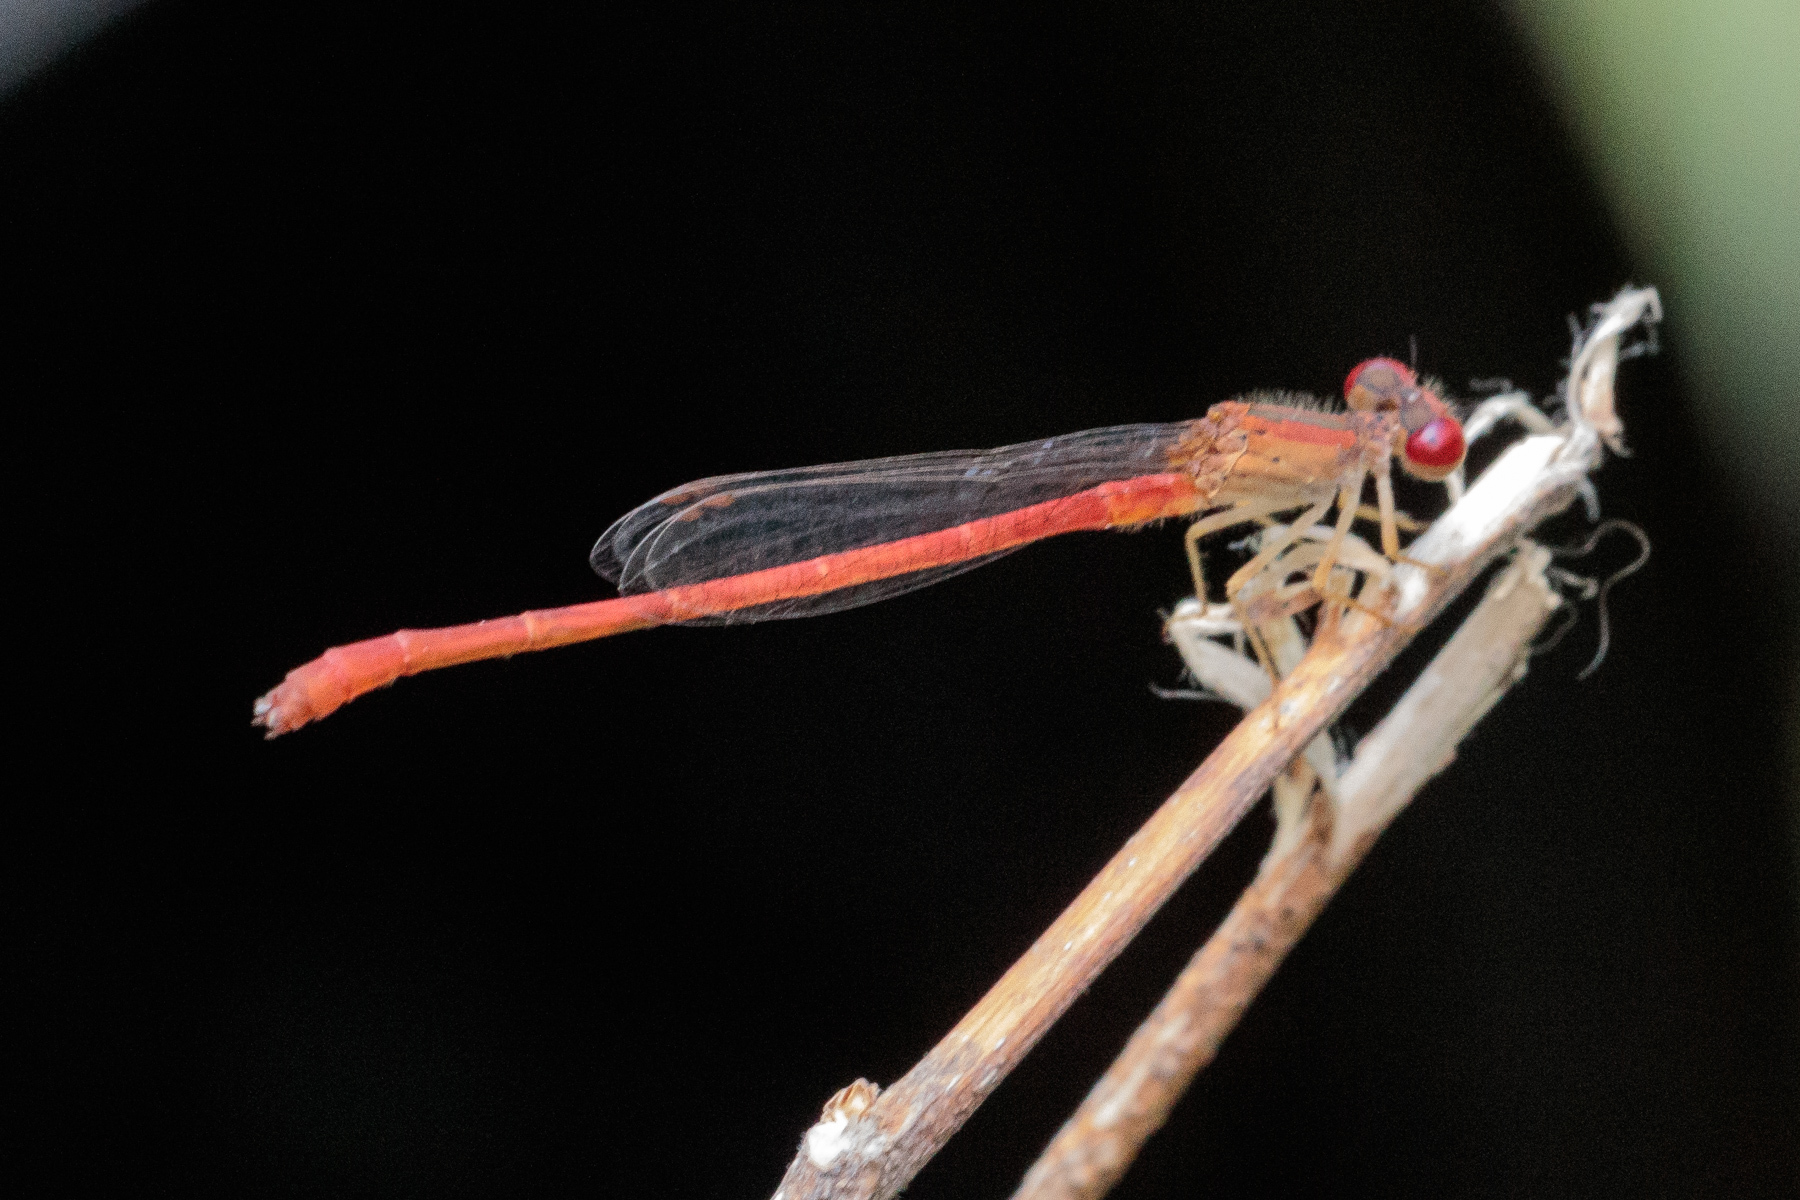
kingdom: Animalia
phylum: Arthropoda
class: Insecta
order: Odonata
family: Coenagrionidae
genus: Telebasis
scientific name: Telebasis salva
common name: Desert firetail
